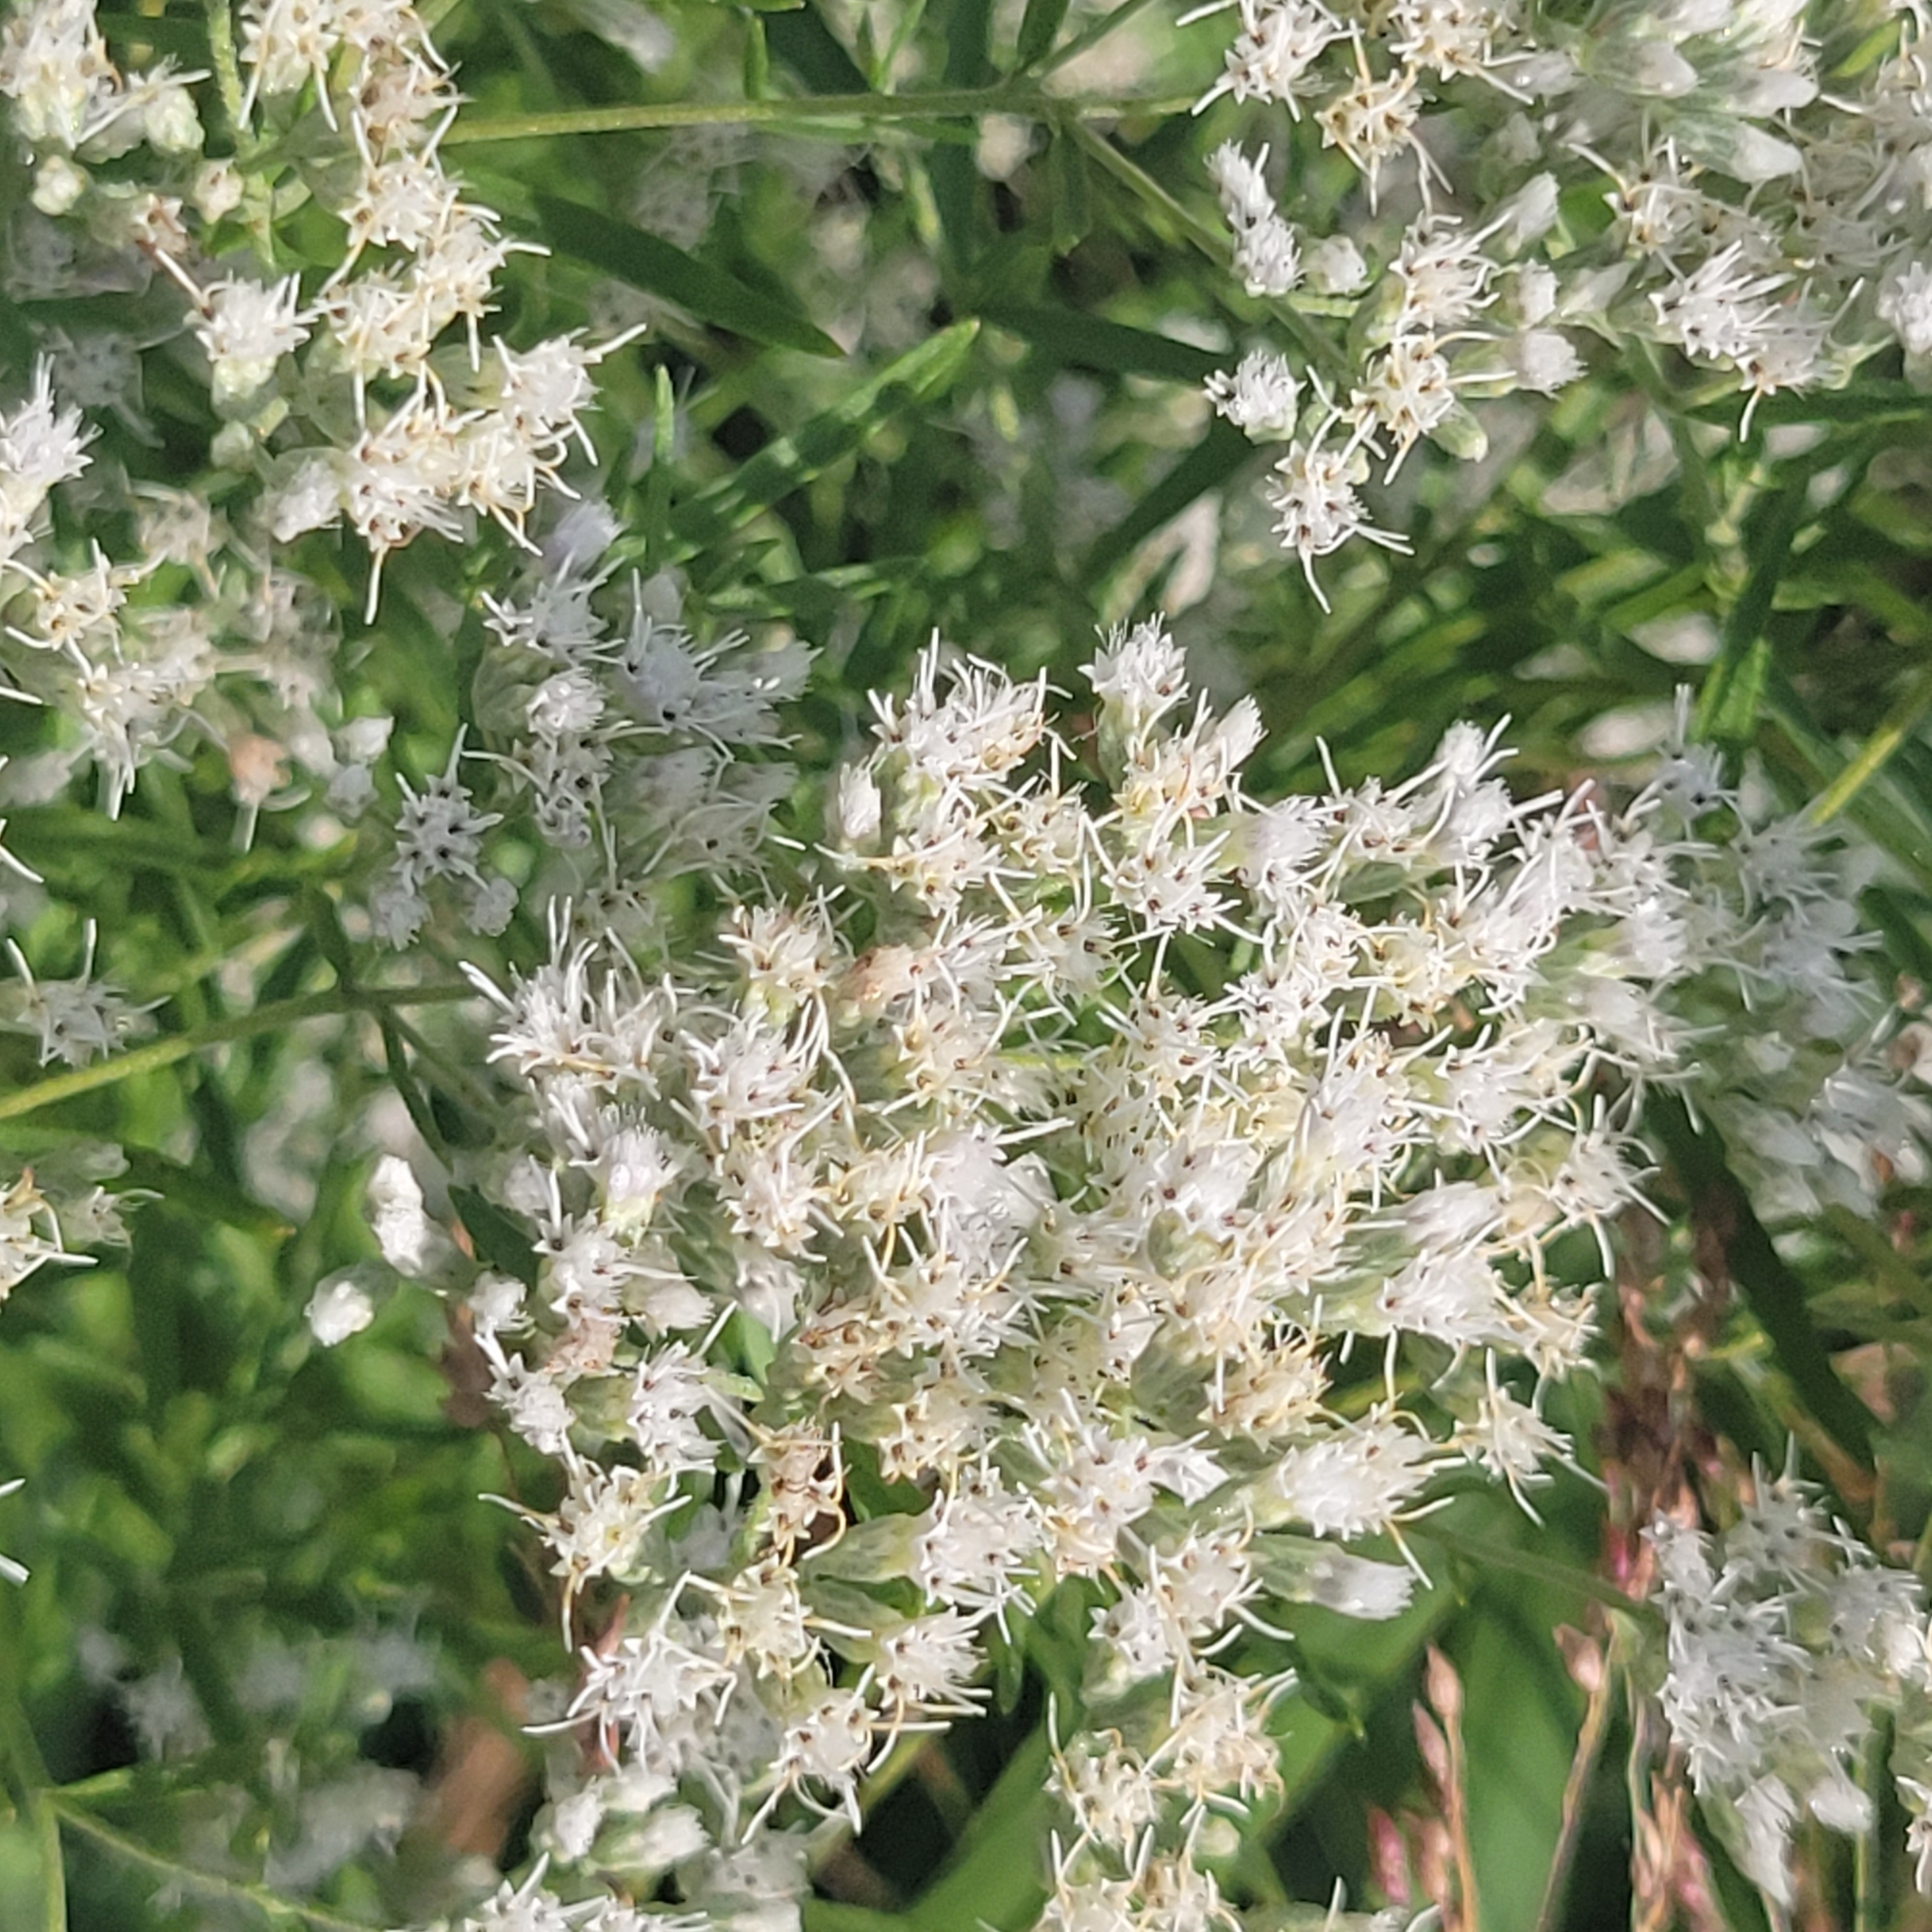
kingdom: Plantae
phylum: Tracheophyta
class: Magnoliopsida
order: Asterales
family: Asteraceae
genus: Eupatorium
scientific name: Eupatorium hyssopifolium
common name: Hyssop-leaf thoroughwort
